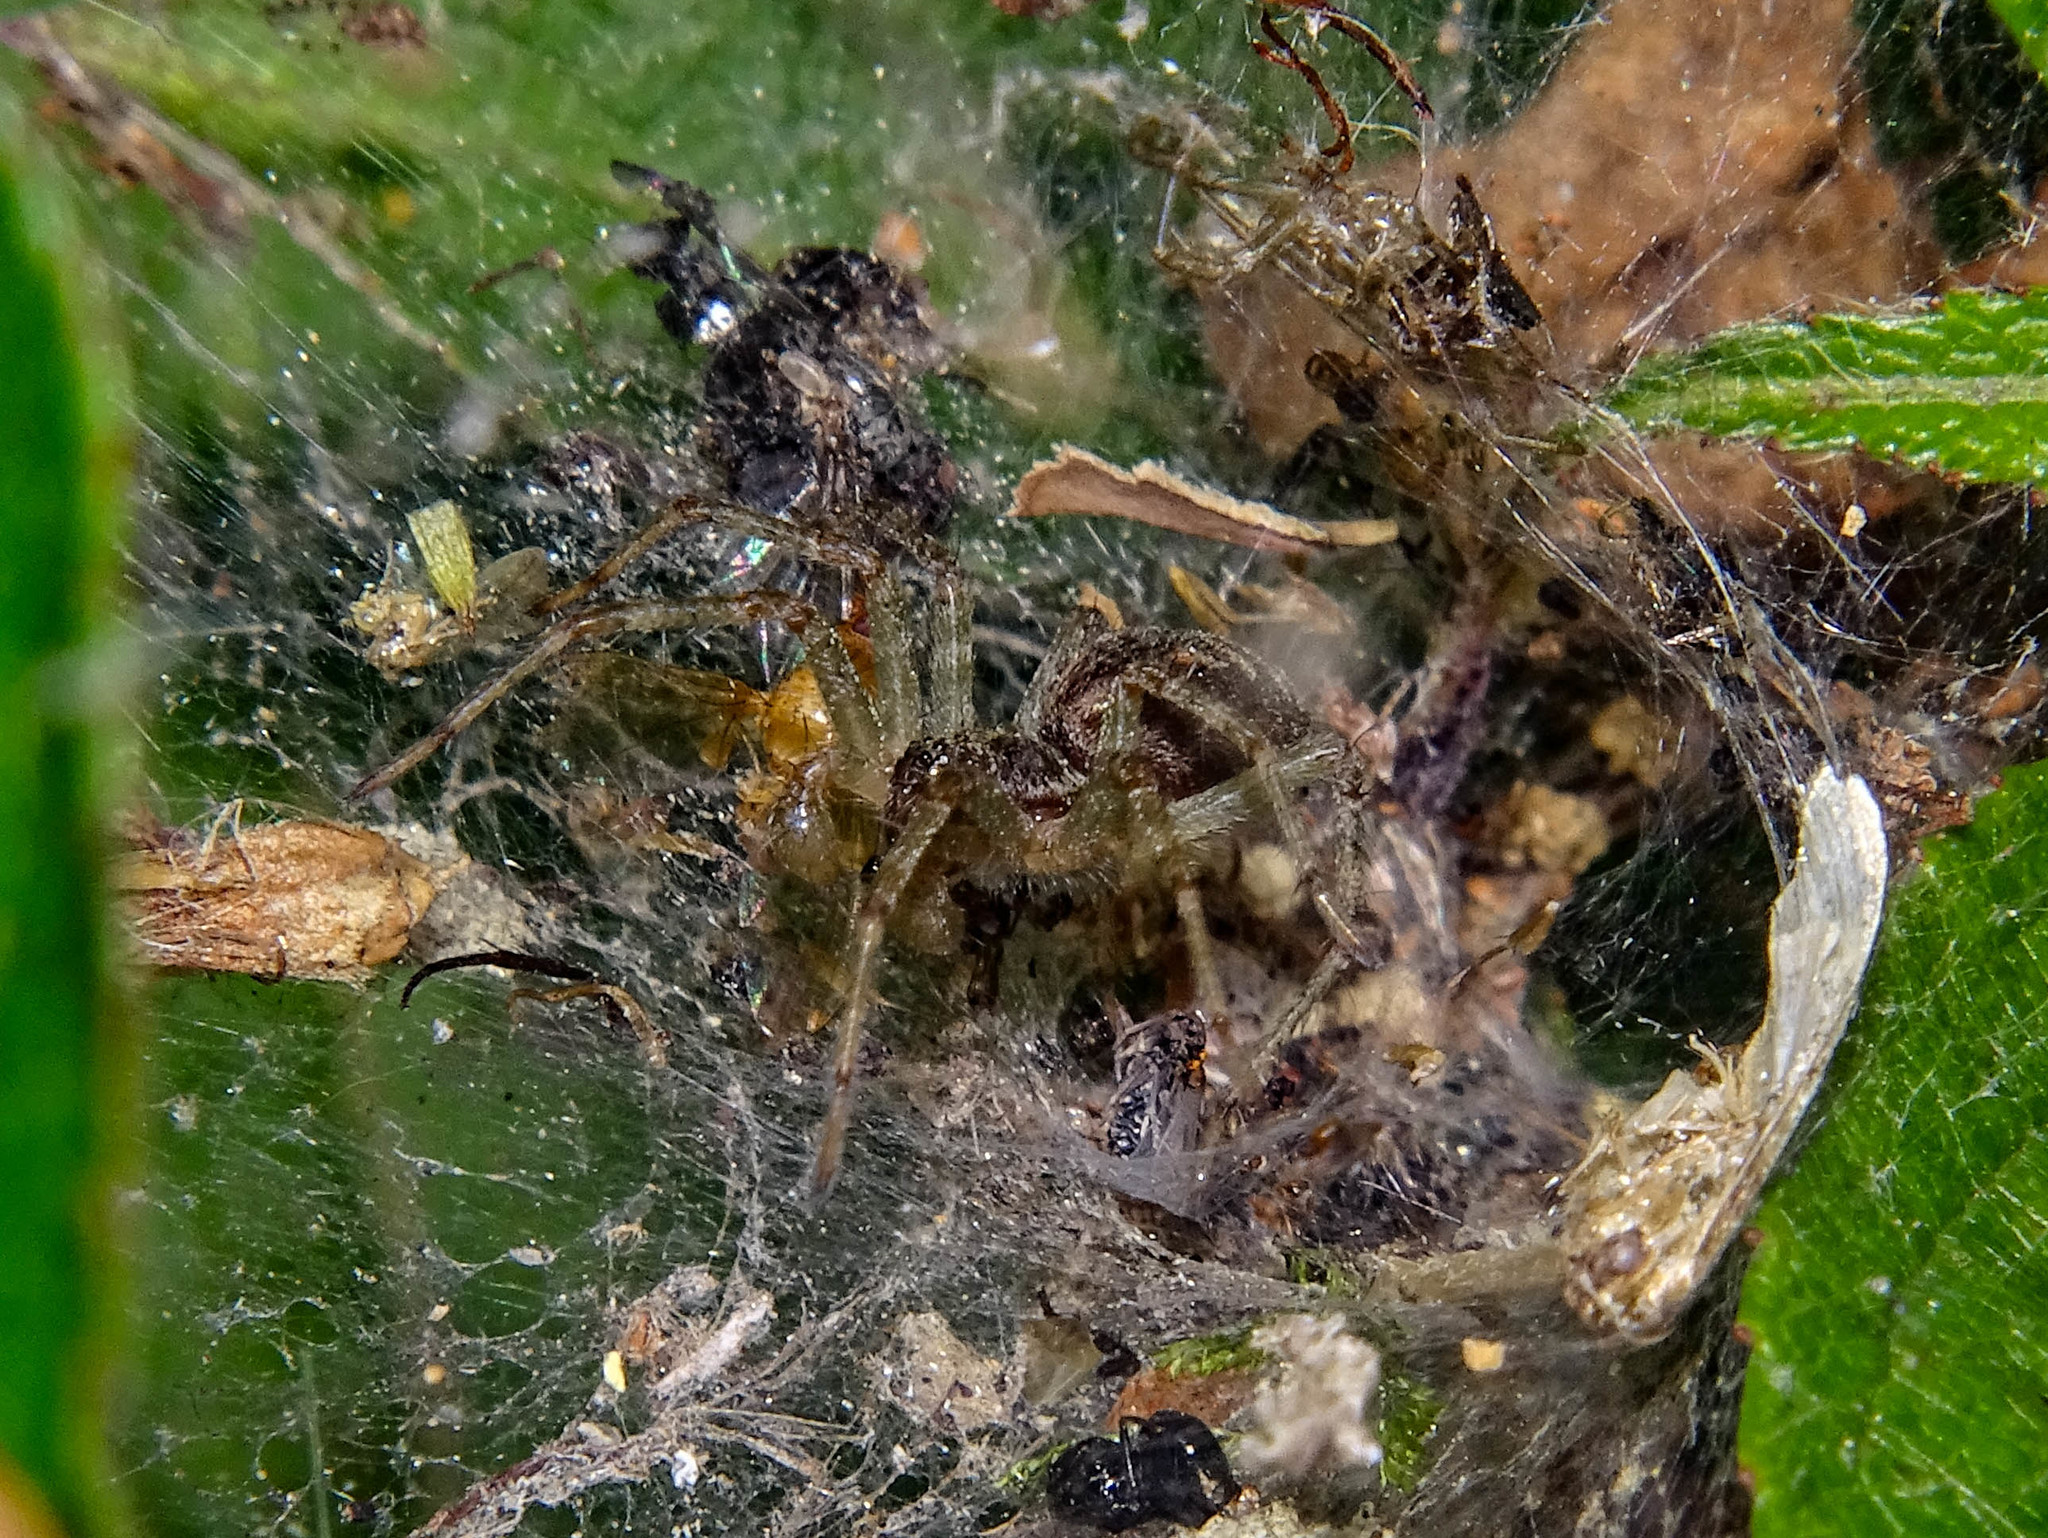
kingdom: Animalia
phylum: Arthropoda
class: Arachnida
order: Araneae
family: Agelenidae
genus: Allagelena
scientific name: Allagelena gracilens
